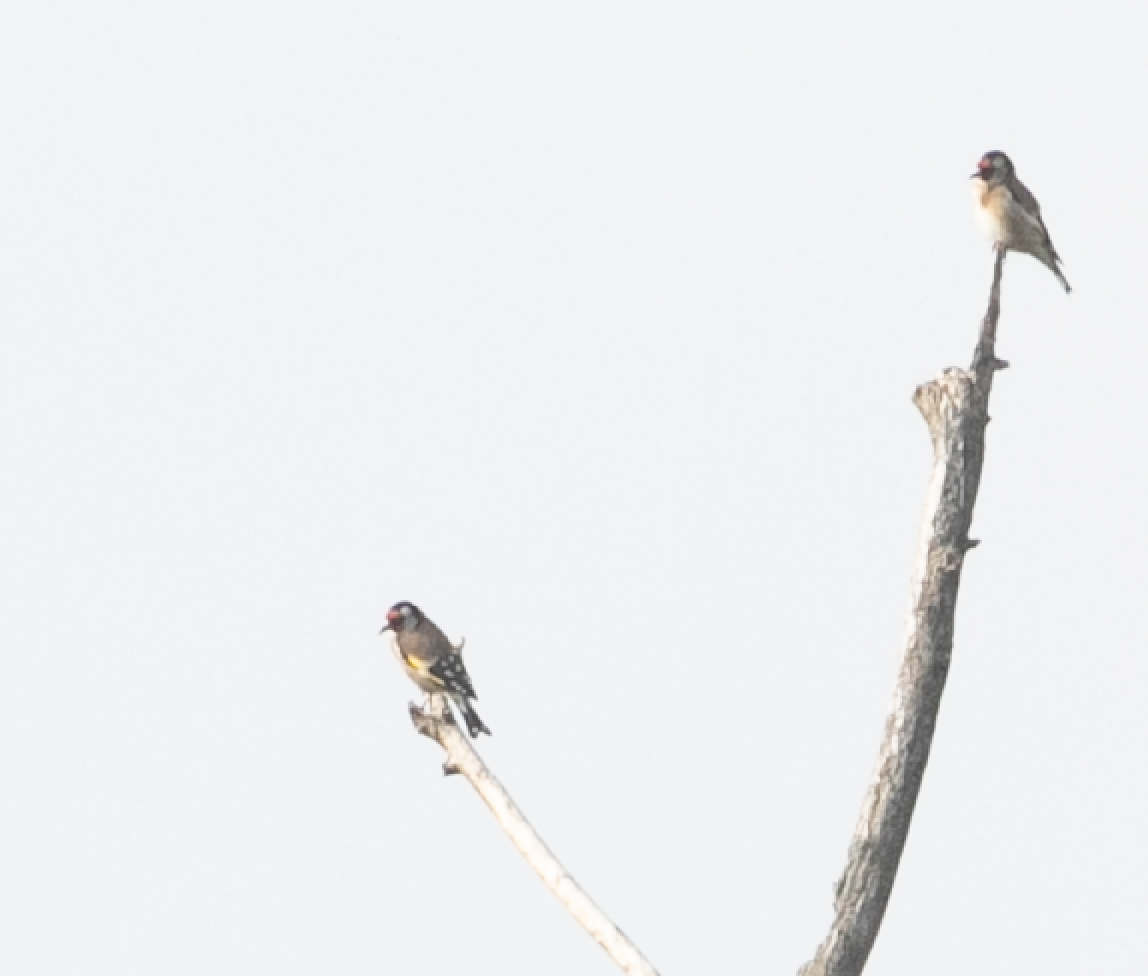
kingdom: Animalia
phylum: Chordata
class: Aves
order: Passeriformes
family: Fringillidae
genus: Carduelis
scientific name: Carduelis carduelis
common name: European goldfinch
